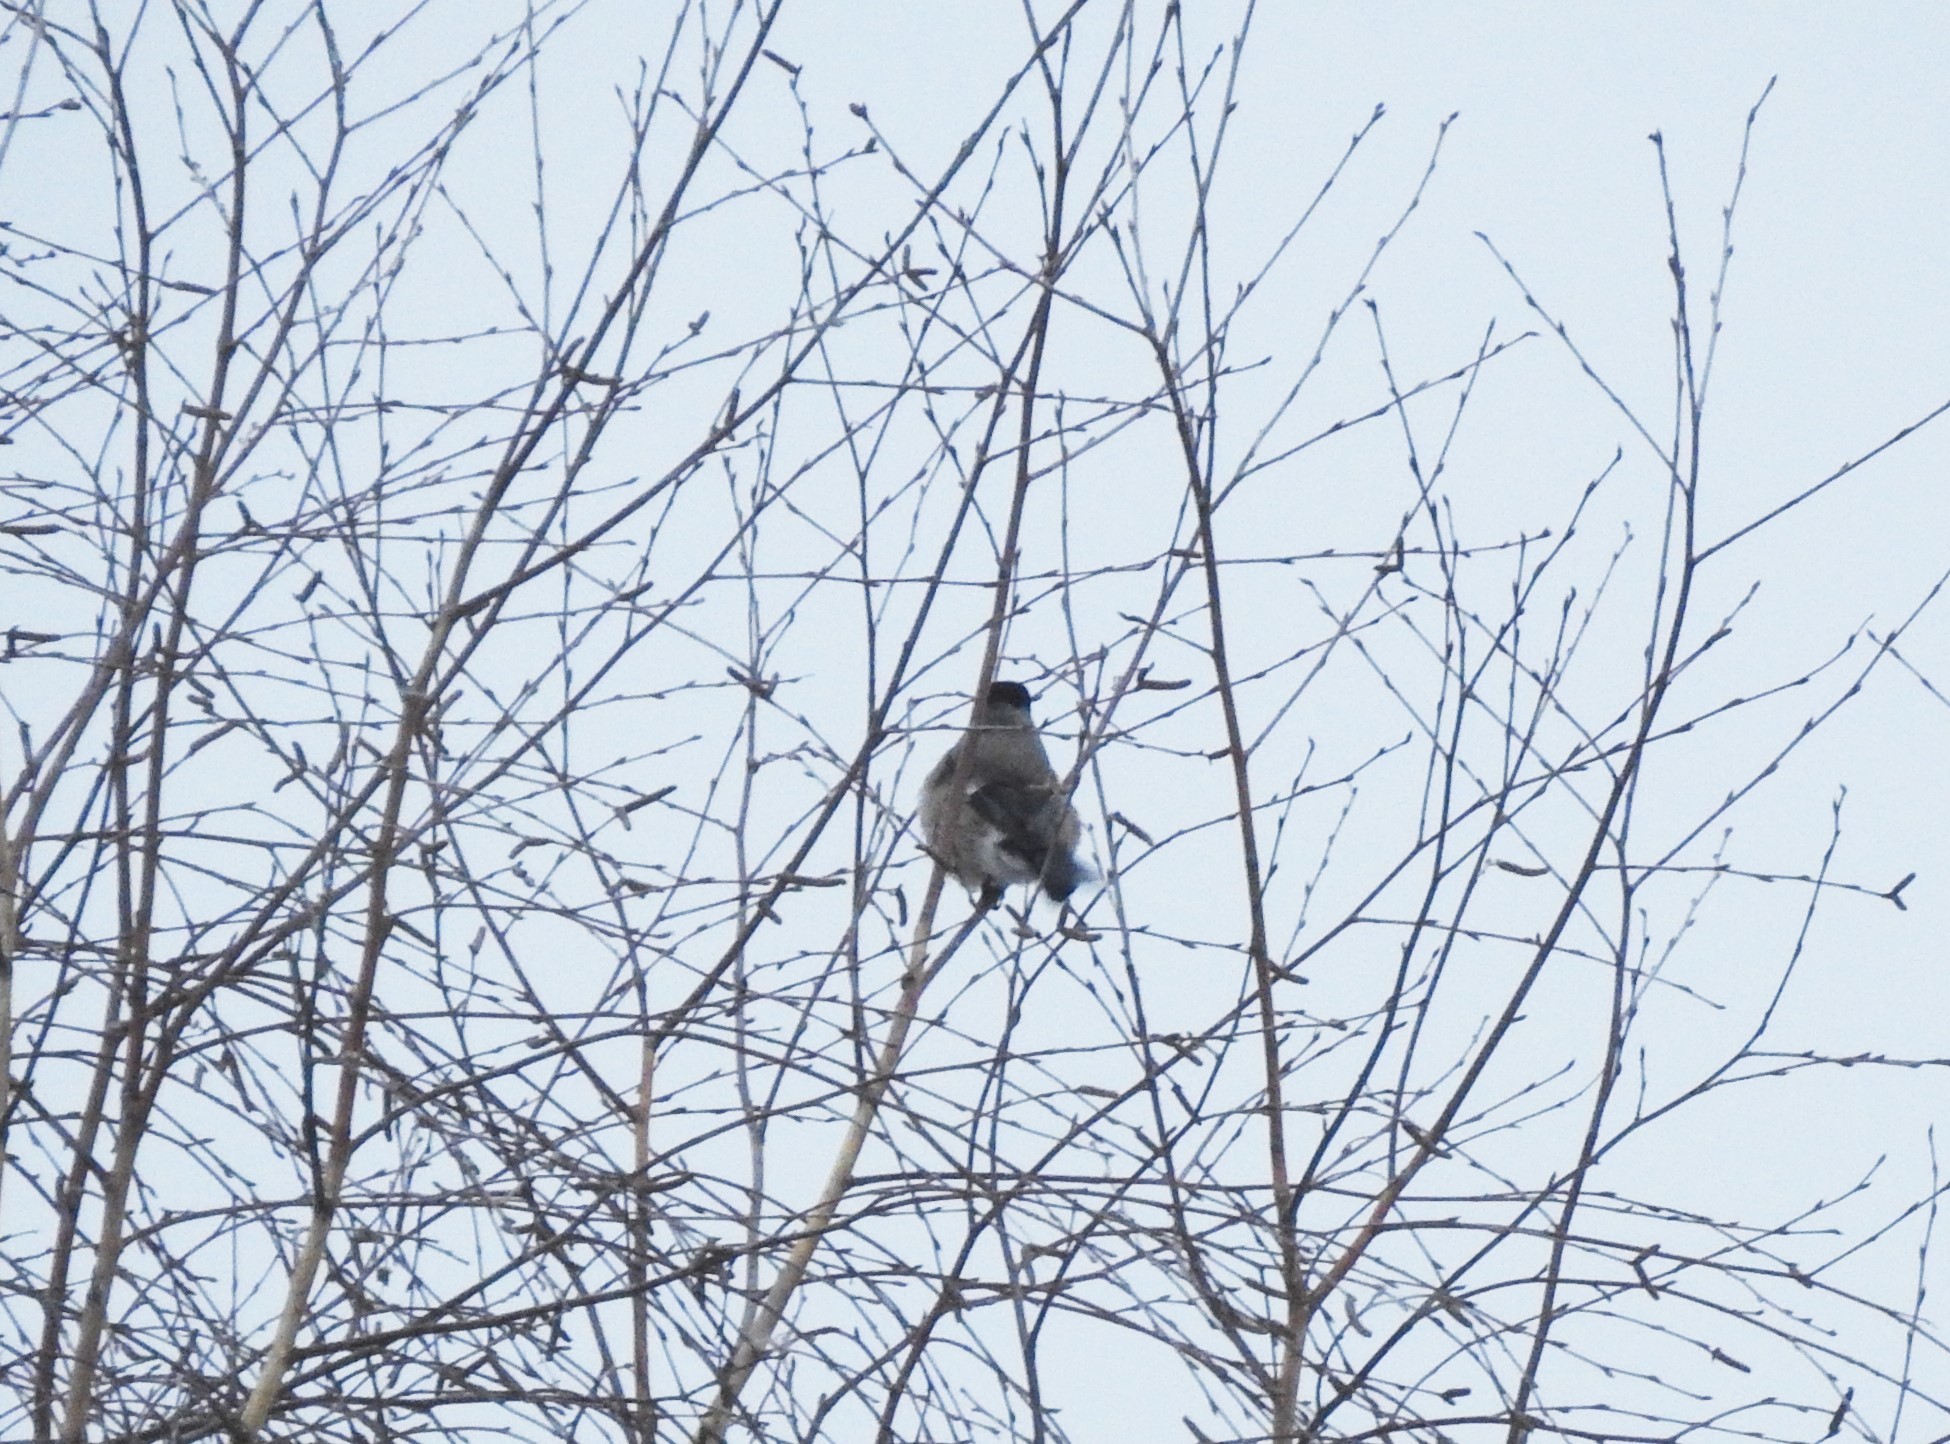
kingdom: Animalia
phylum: Chordata
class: Aves
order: Passeriformes
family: Fringillidae
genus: Pyrrhula
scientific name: Pyrrhula pyrrhula
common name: Eurasian bullfinch
